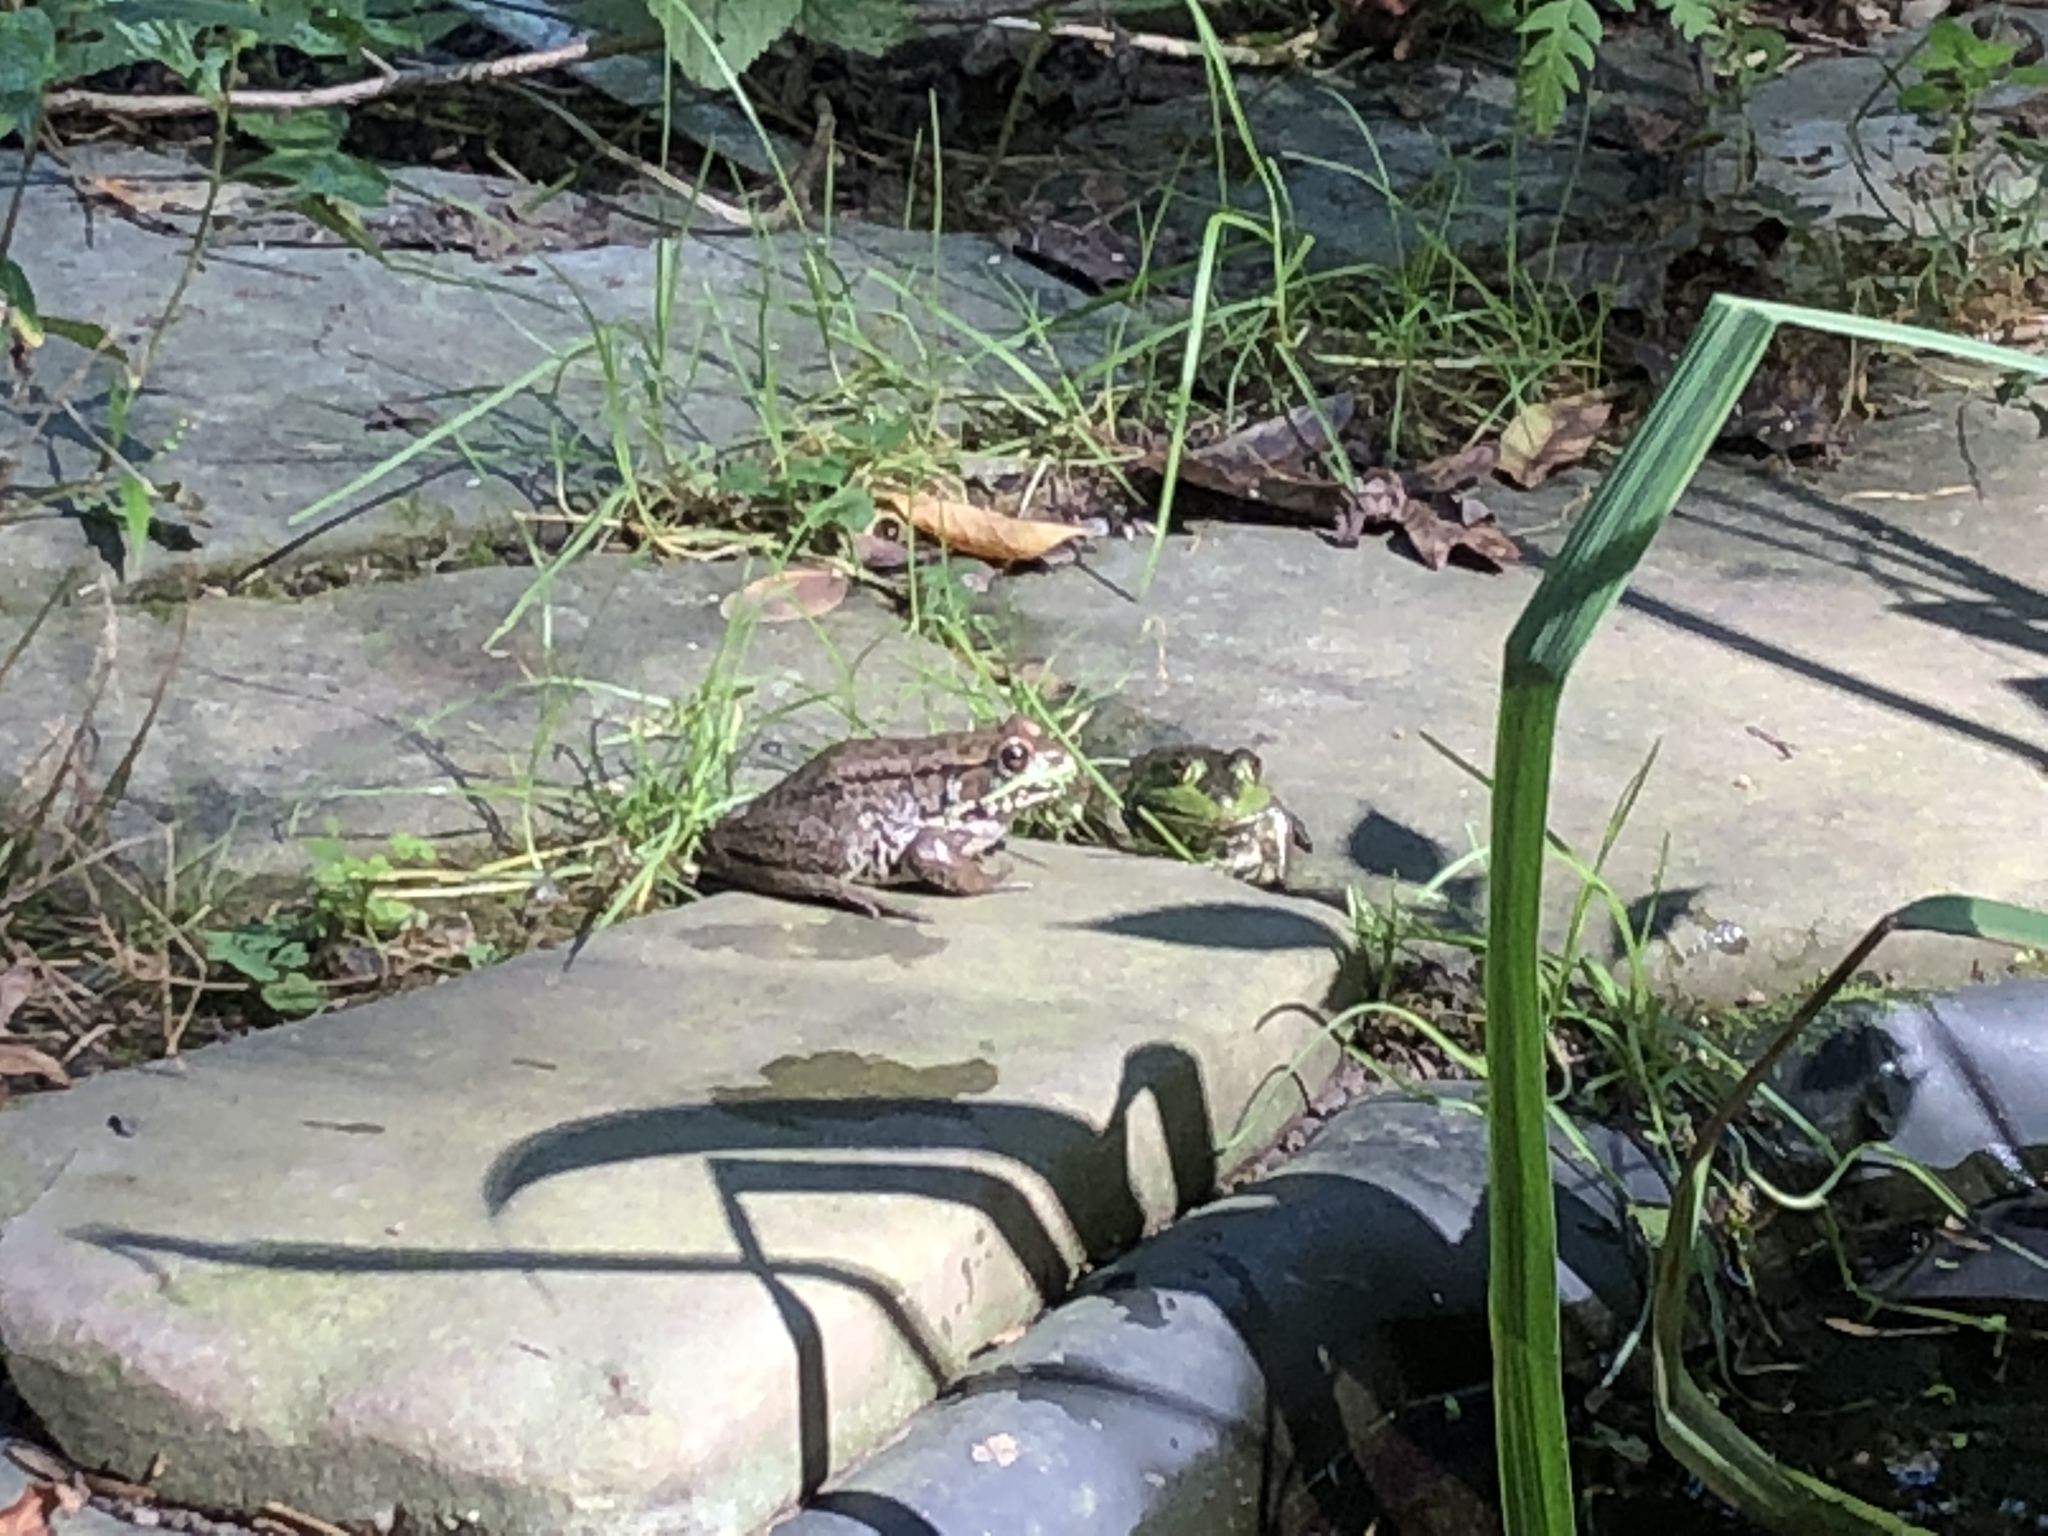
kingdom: Animalia
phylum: Chordata
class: Amphibia
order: Anura
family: Ranidae
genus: Lithobates
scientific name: Lithobates clamitans
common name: Green frog
